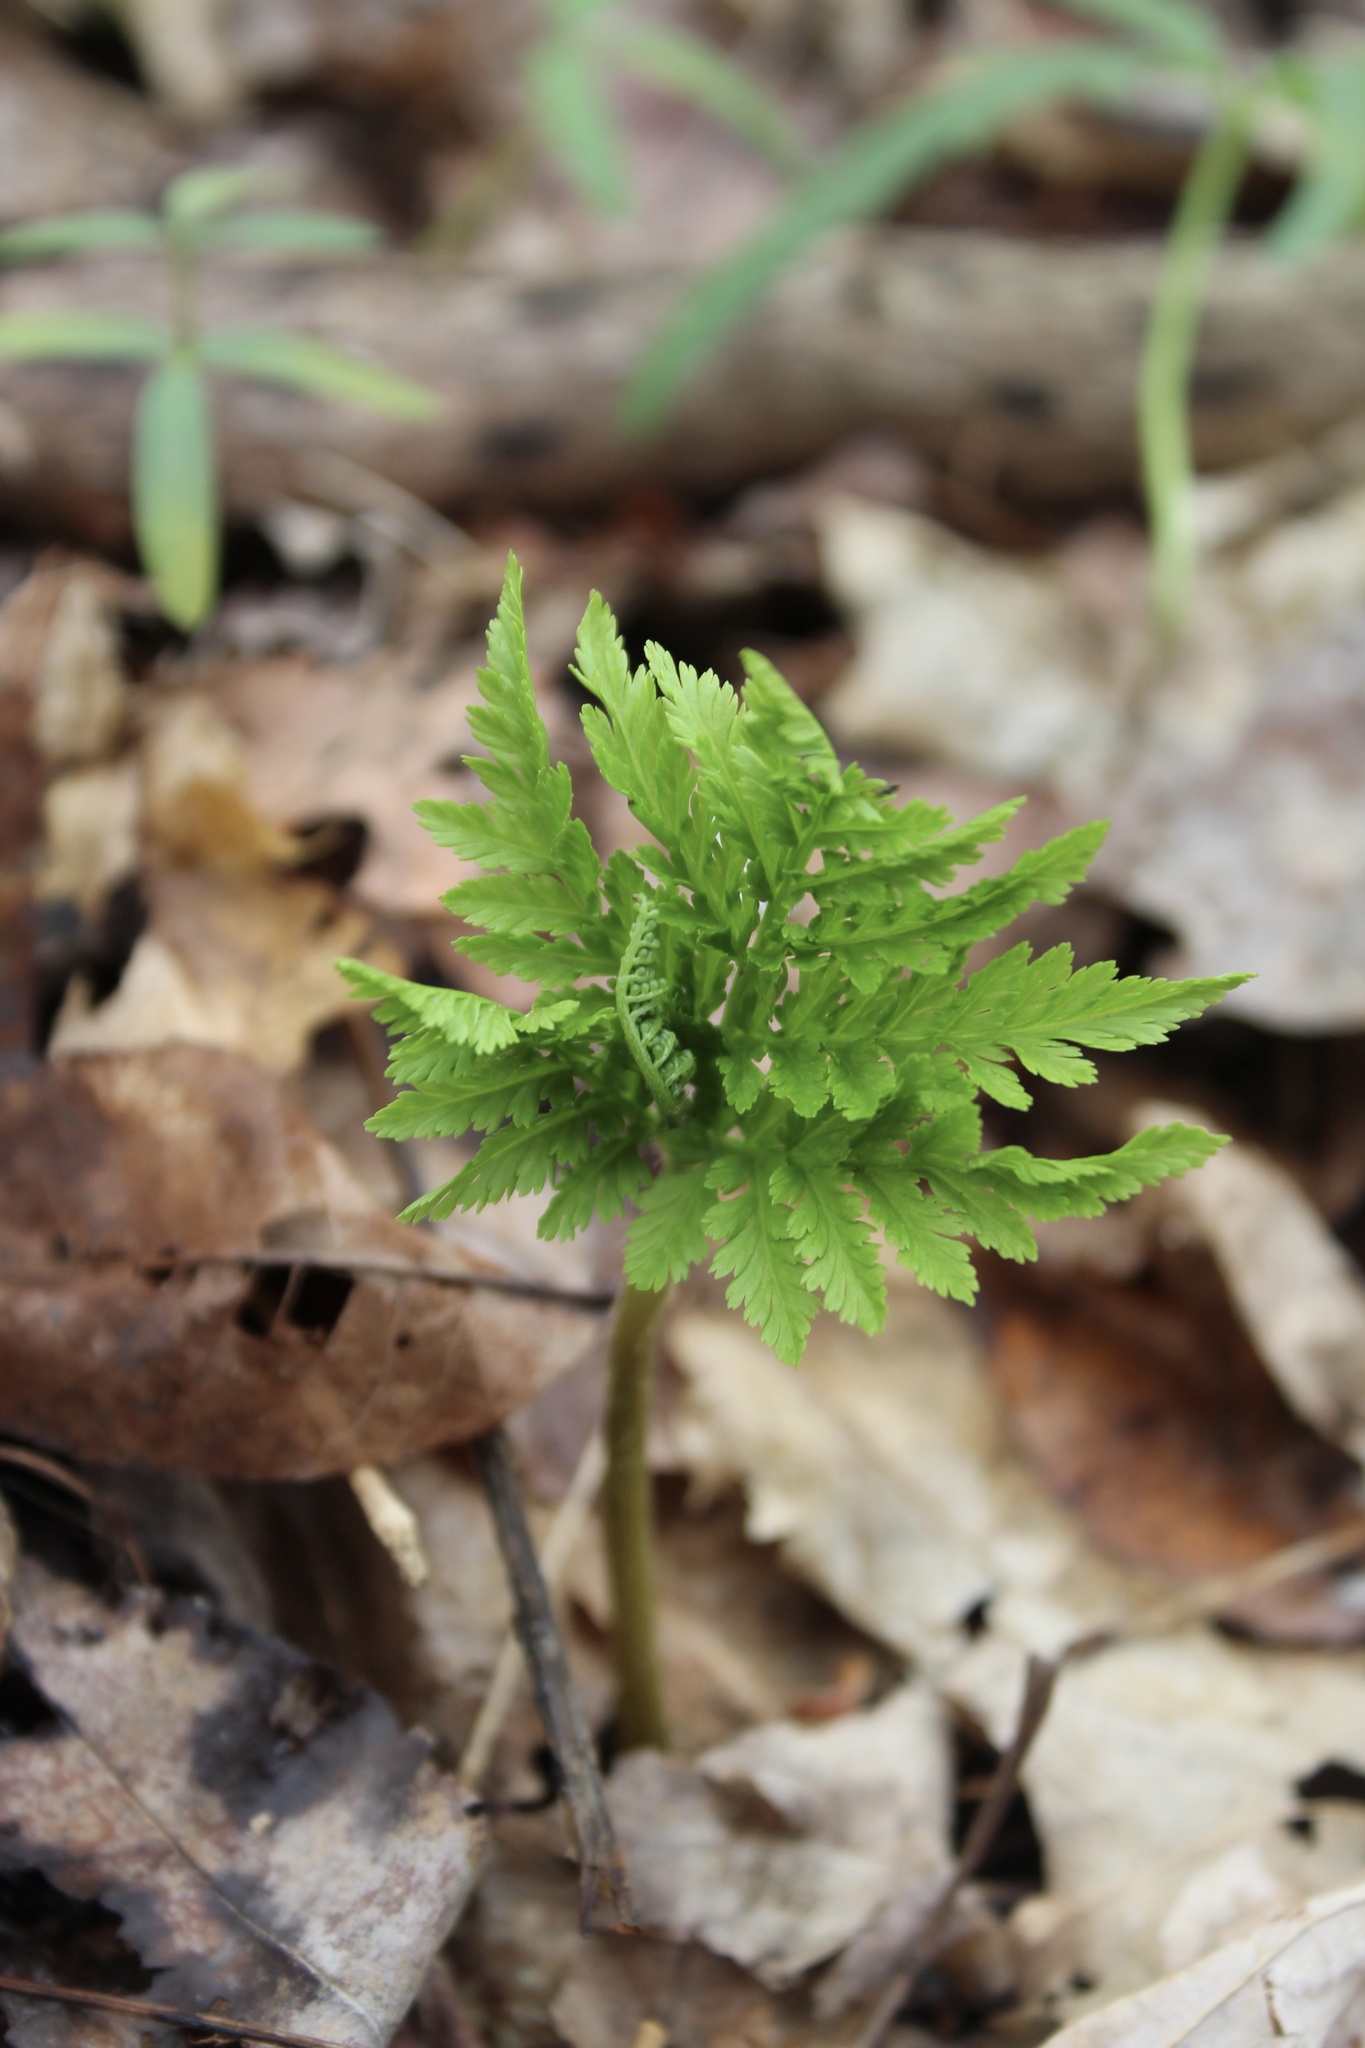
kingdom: Plantae
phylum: Tracheophyta
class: Polypodiopsida
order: Ophioglossales
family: Ophioglossaceae
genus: Botrypus
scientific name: Botrypus virginianus
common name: Common grapefern
